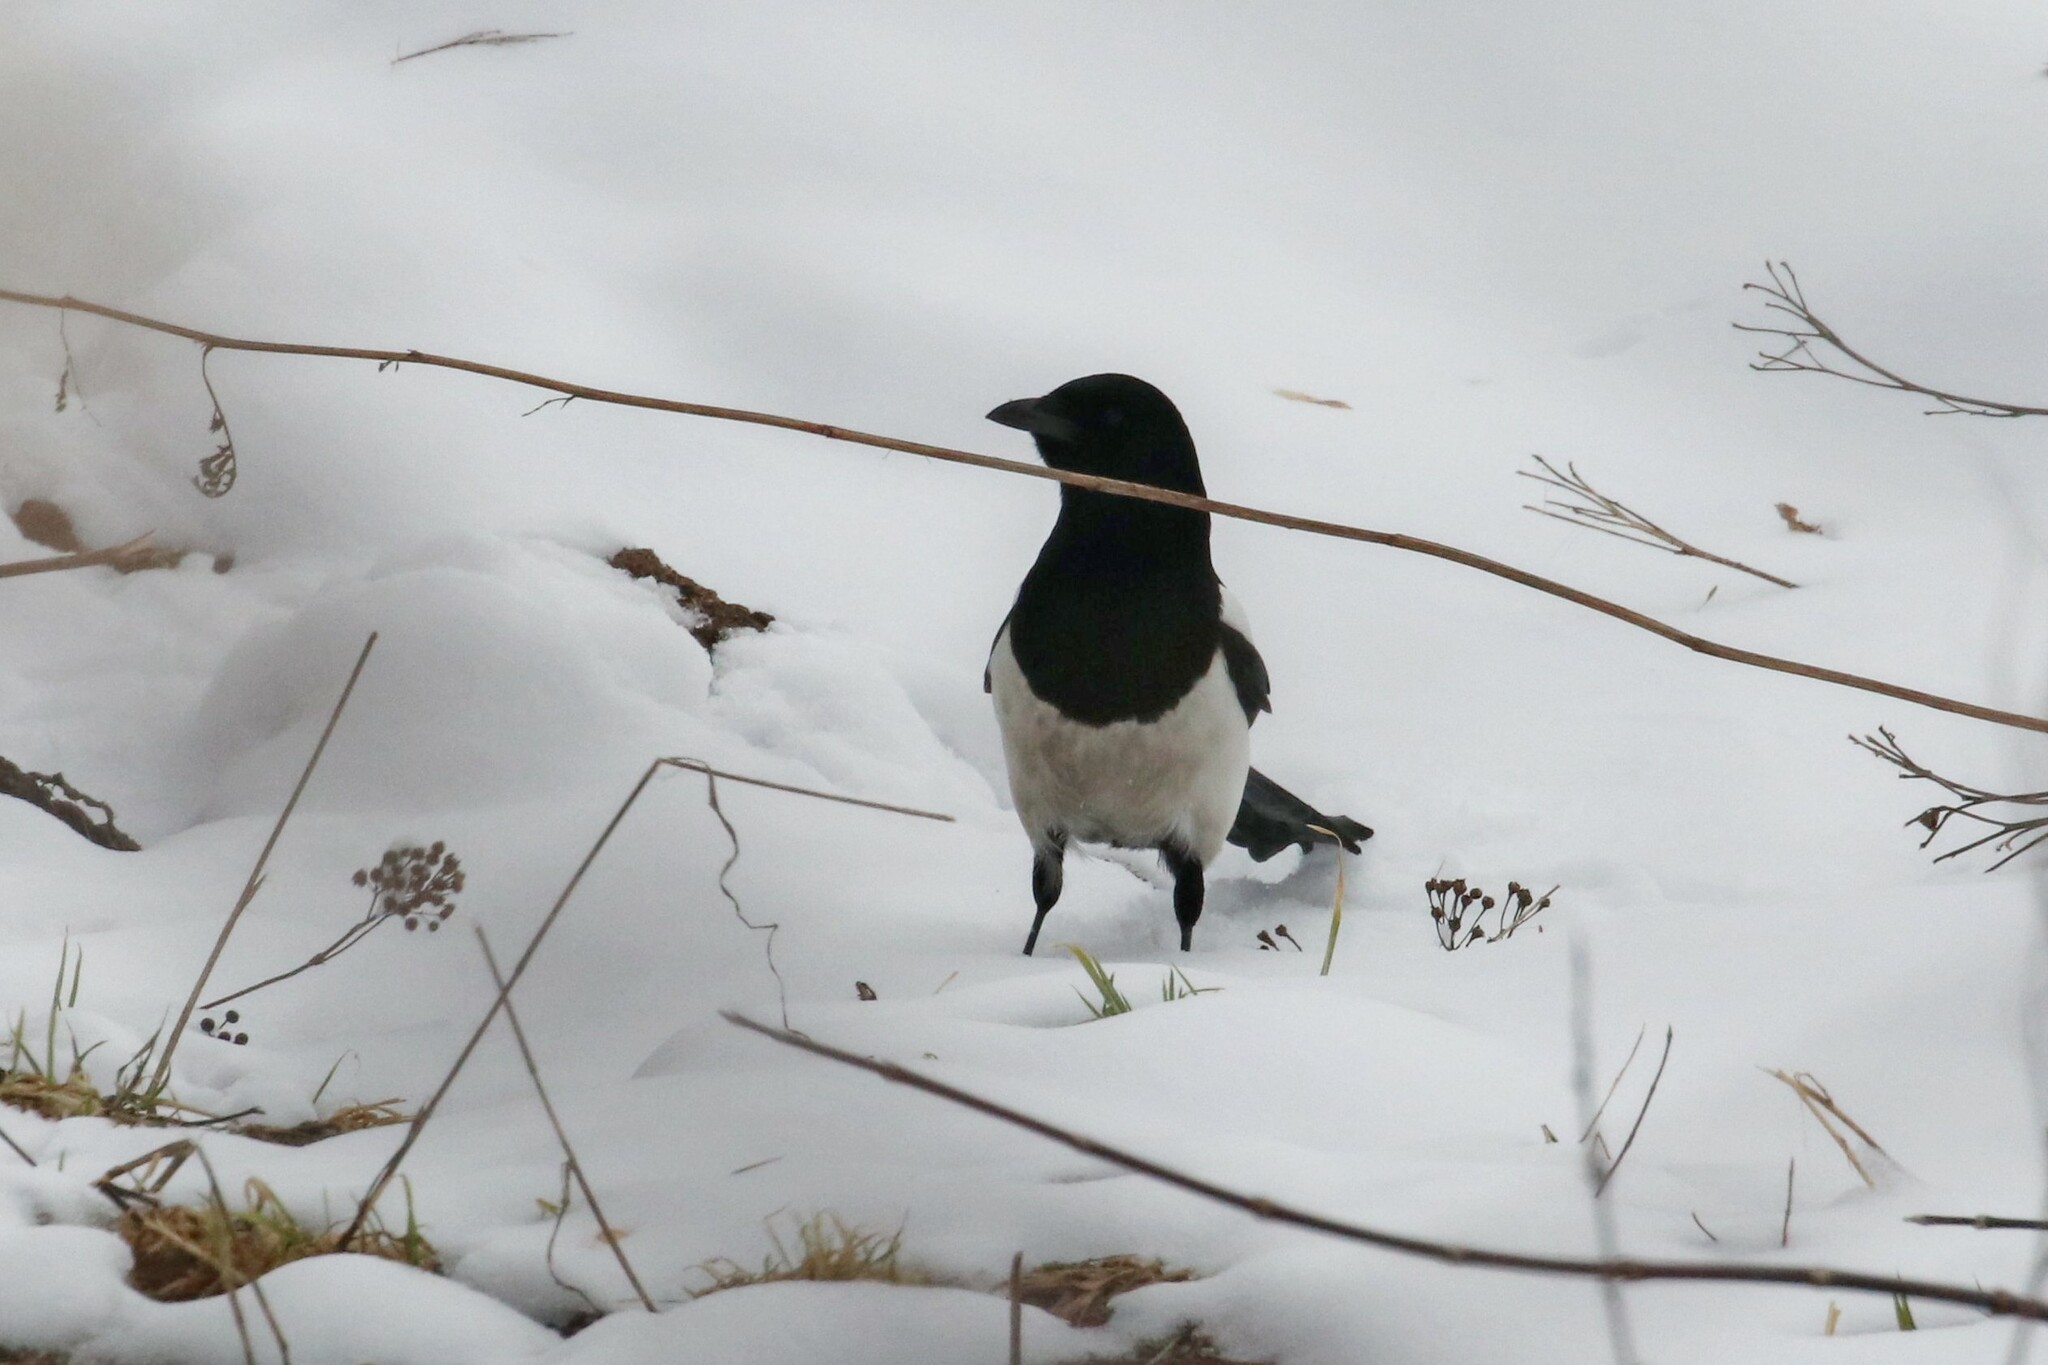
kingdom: Animalia
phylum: Chordata
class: Aves
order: Passeriformes
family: Corvidae
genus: Pica
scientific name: Pica pica
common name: Eurasian magpie
